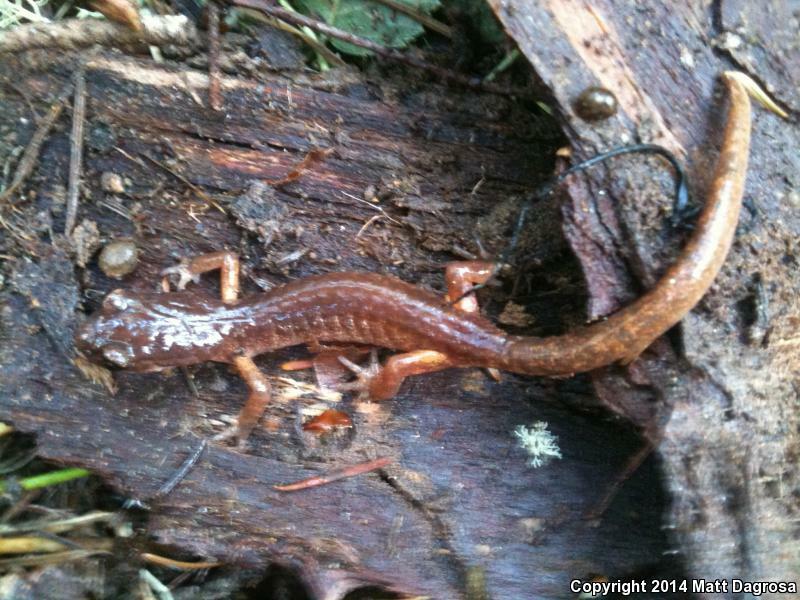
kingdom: Animalia
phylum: Chordata
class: Amphibia
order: Caudata
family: Plethodontidae
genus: Ensatina
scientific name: Ensatina eschscholtzii
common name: Ensatina
